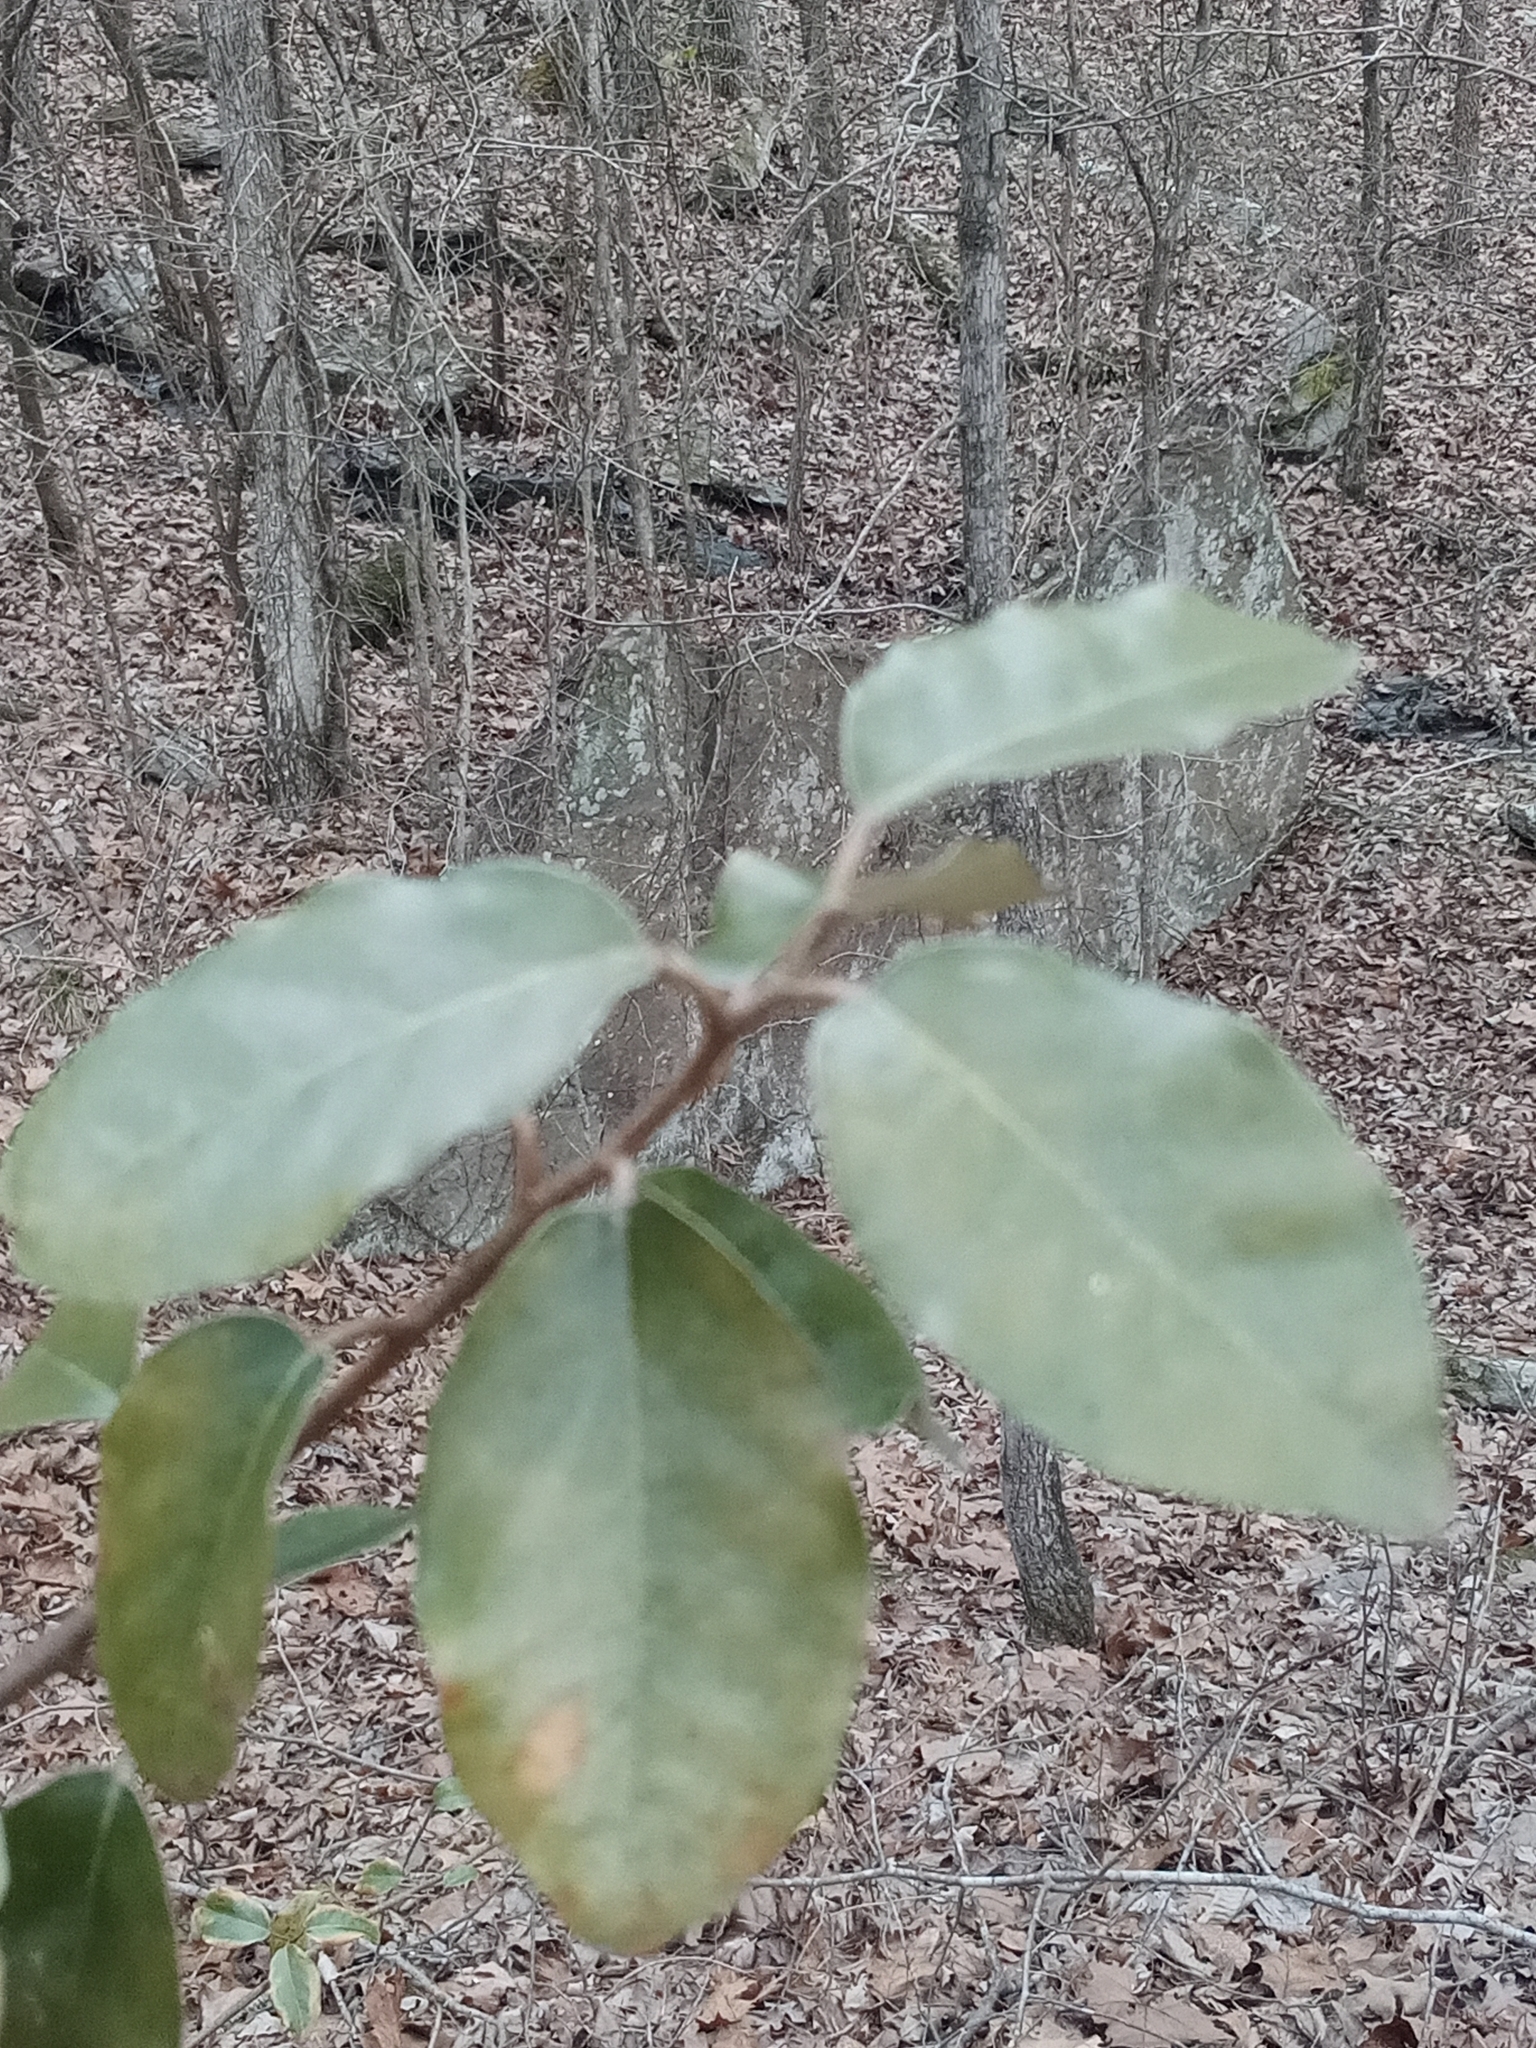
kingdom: Plantae
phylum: Tracheophyta
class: Magnoliopsida
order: Rosales
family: Elaeagnaceae
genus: Elaeagnus
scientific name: Elaeagnus pungens
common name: Spiny oleaster
